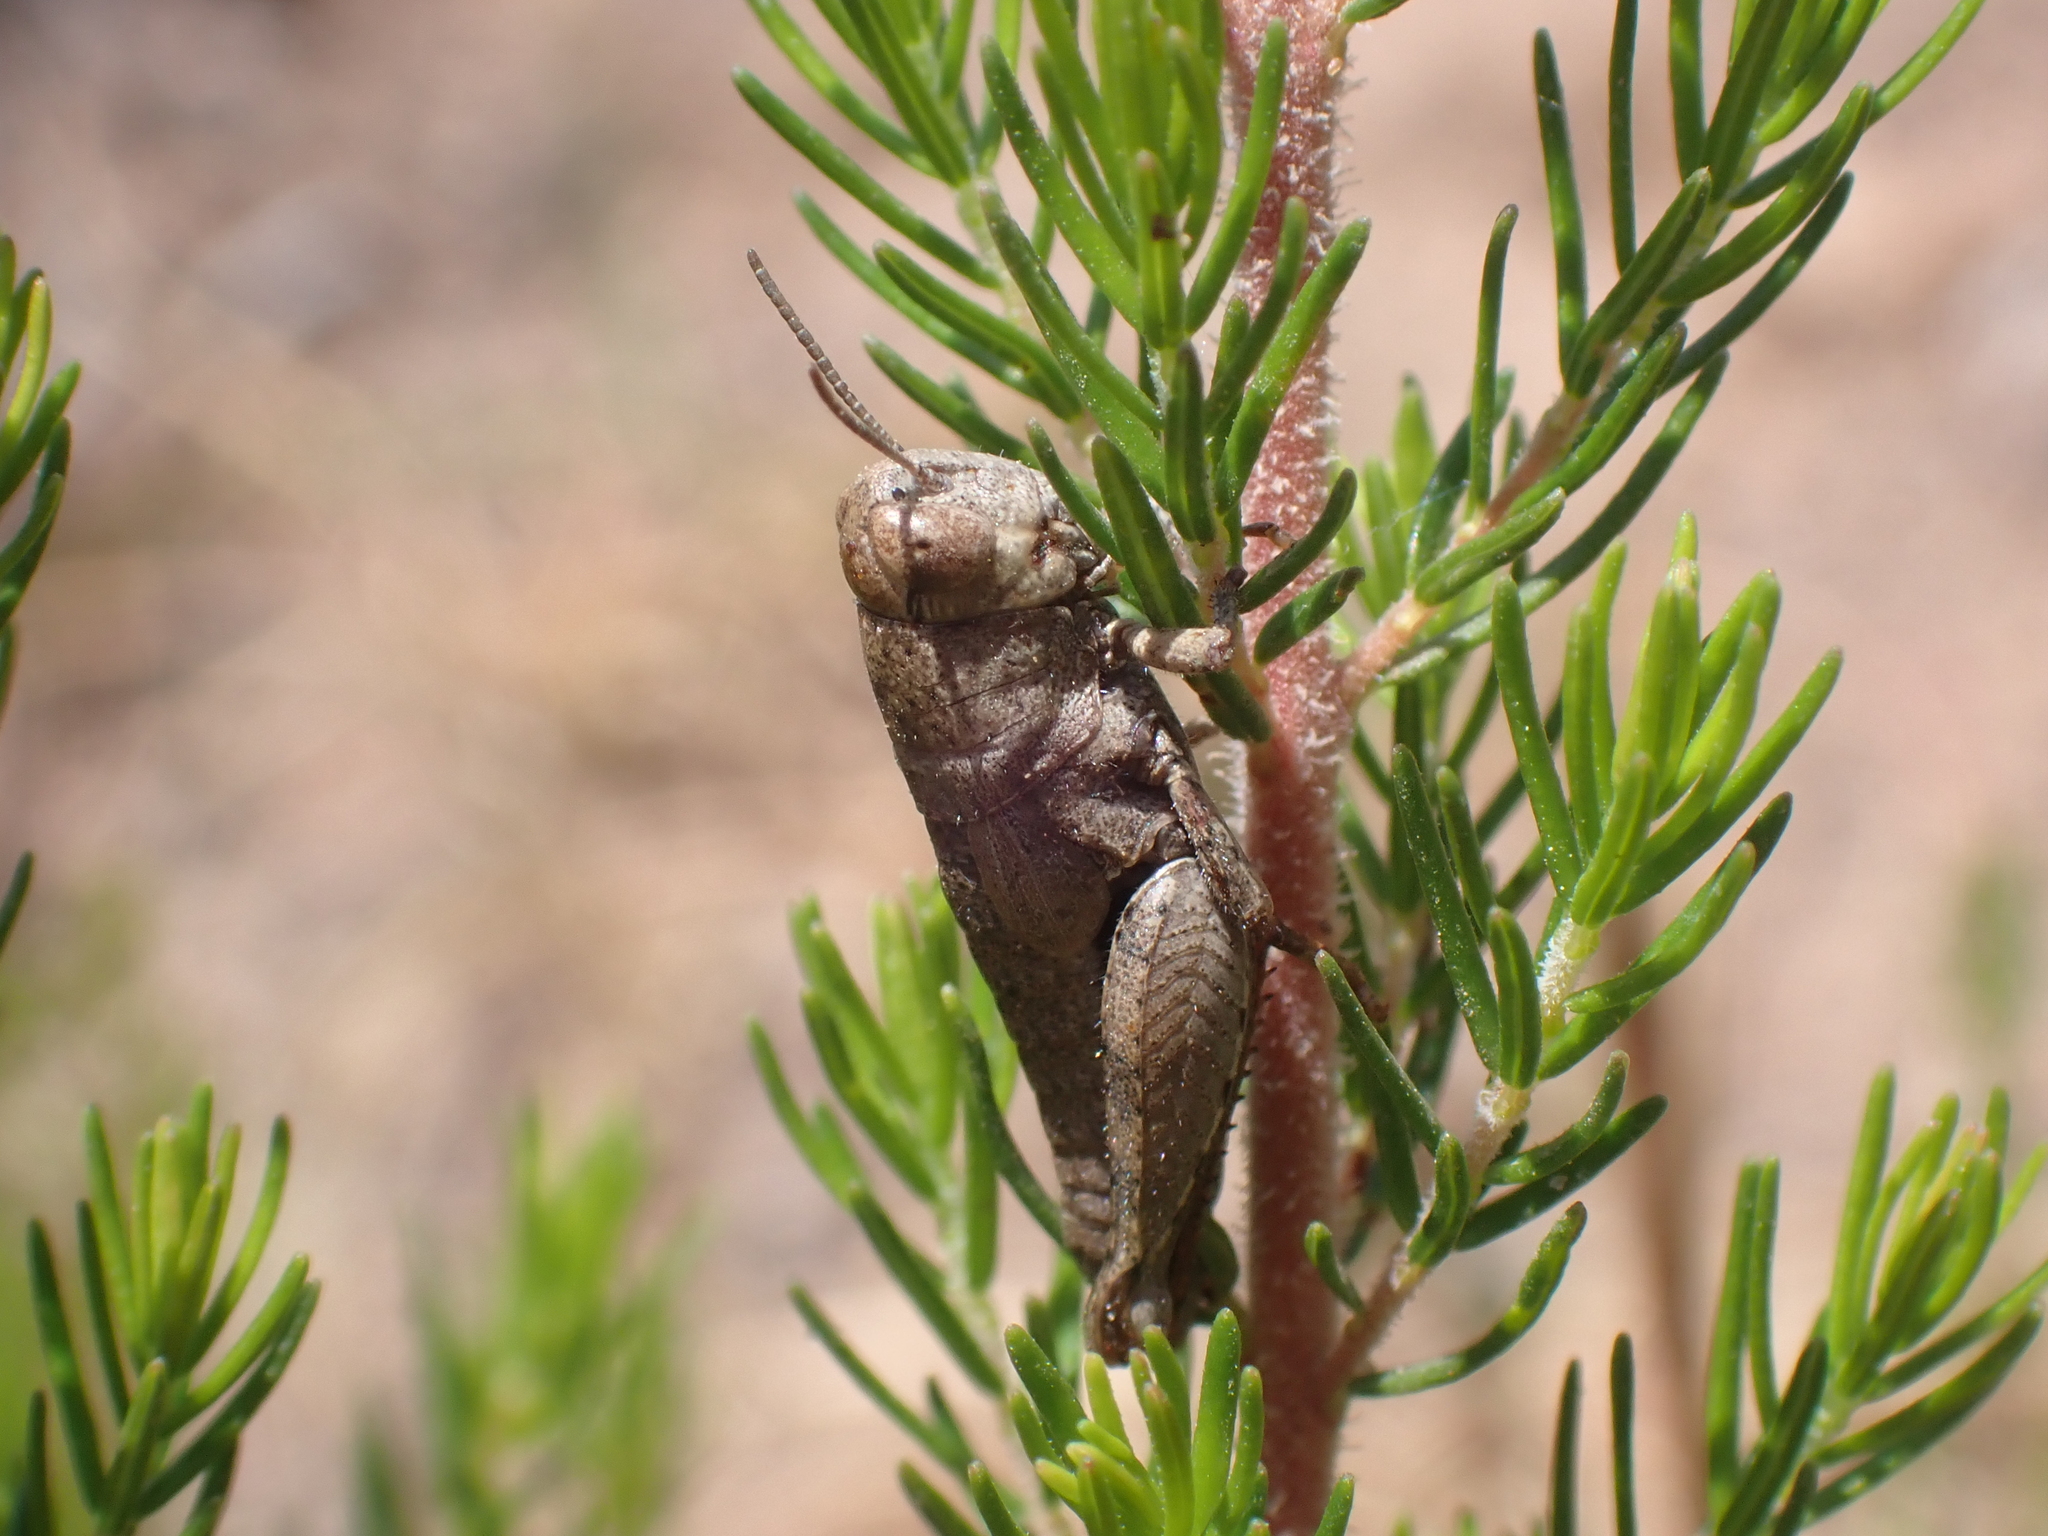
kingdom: Animalia
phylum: Arthropoda
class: Insecta
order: Orthoptera
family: Acrididae
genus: Pezotettix
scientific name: Pezotettix giornae
